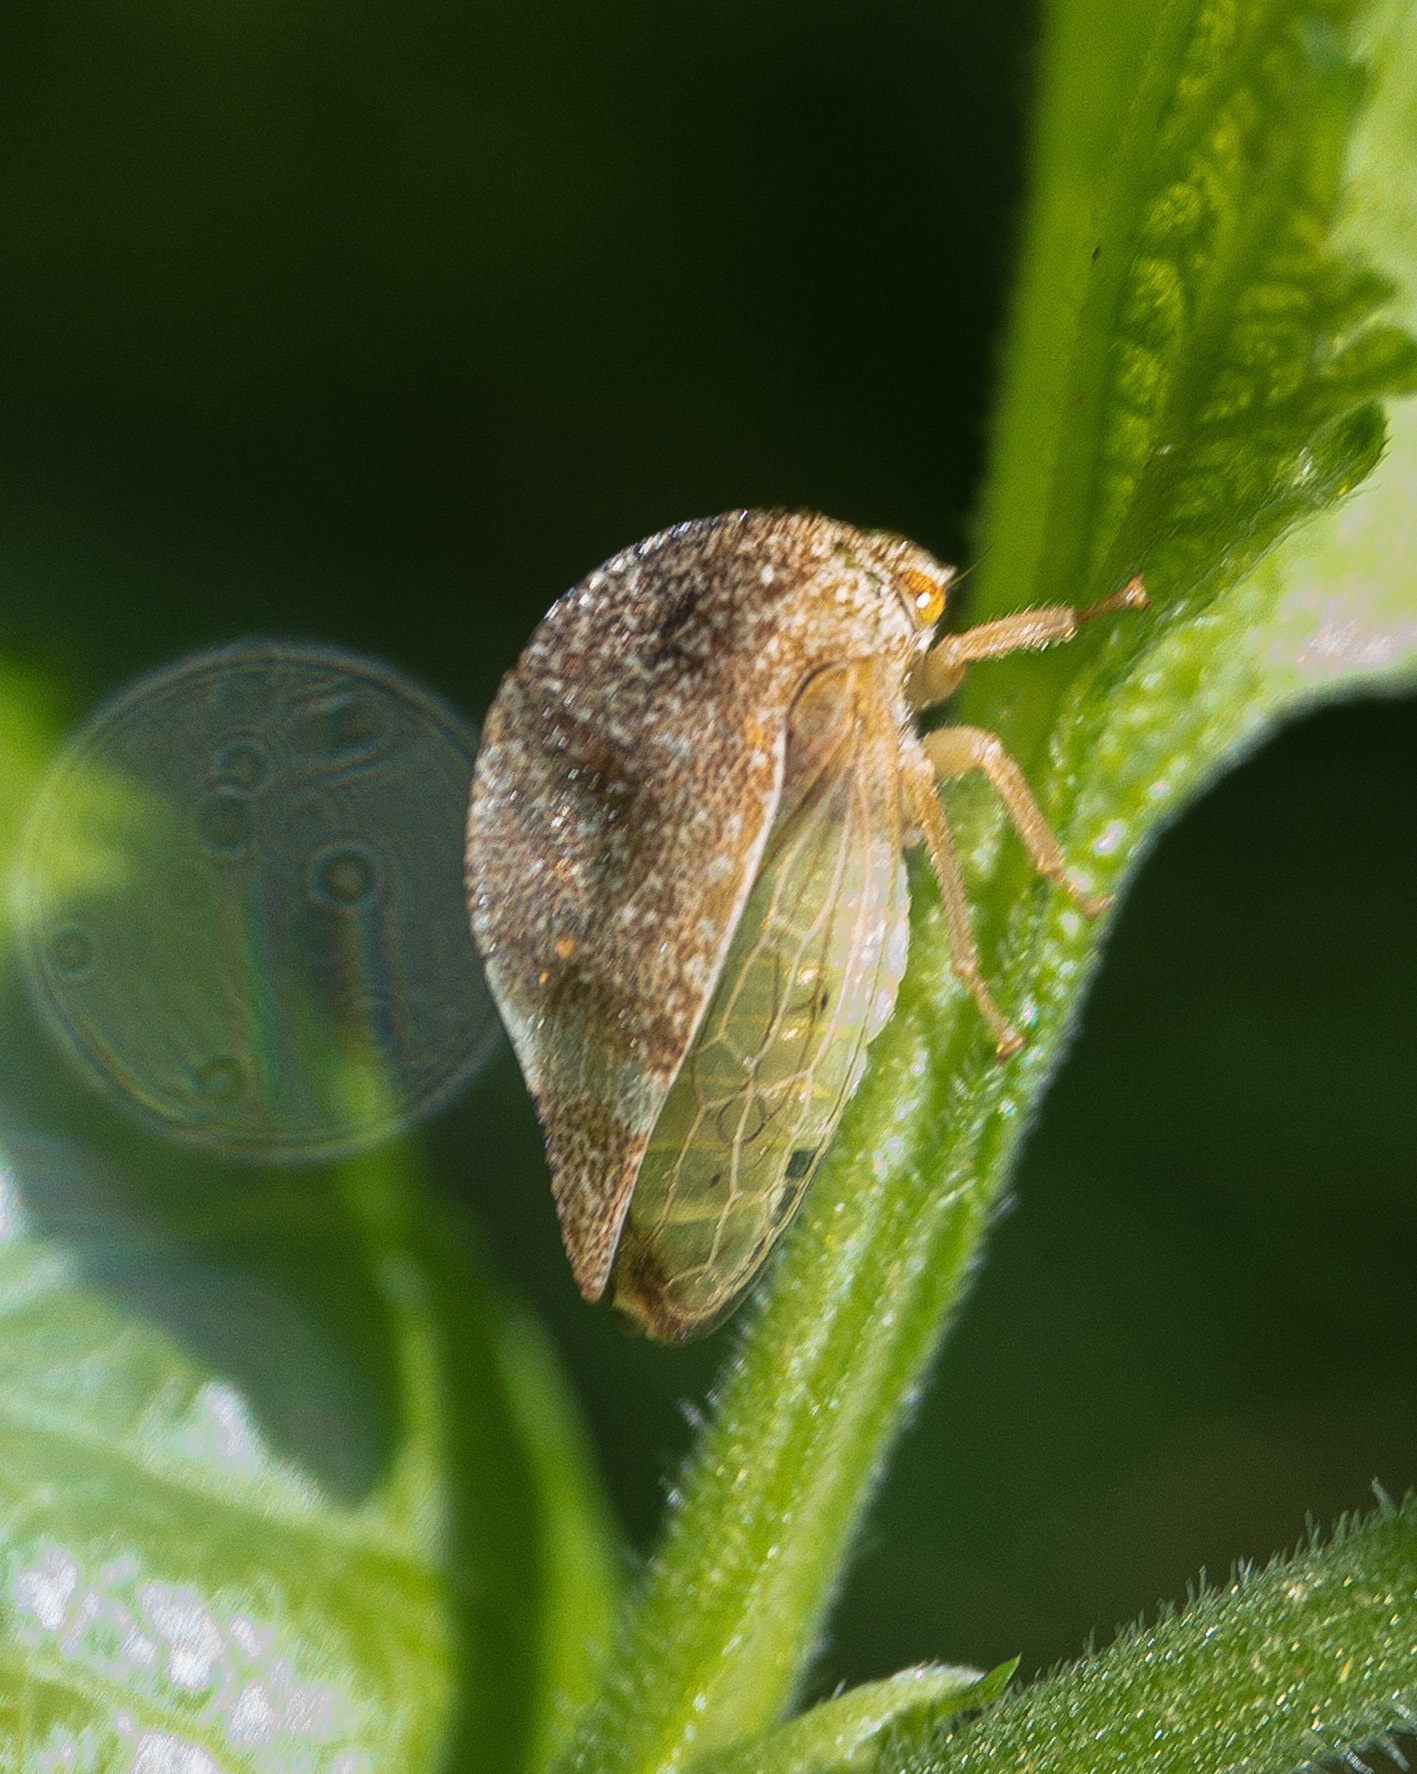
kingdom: Animalia
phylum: Arthropoda
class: Insecta
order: Hemiptera
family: Membracidae
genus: Cyrtolobus
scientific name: Cyrtolobus arcuata
